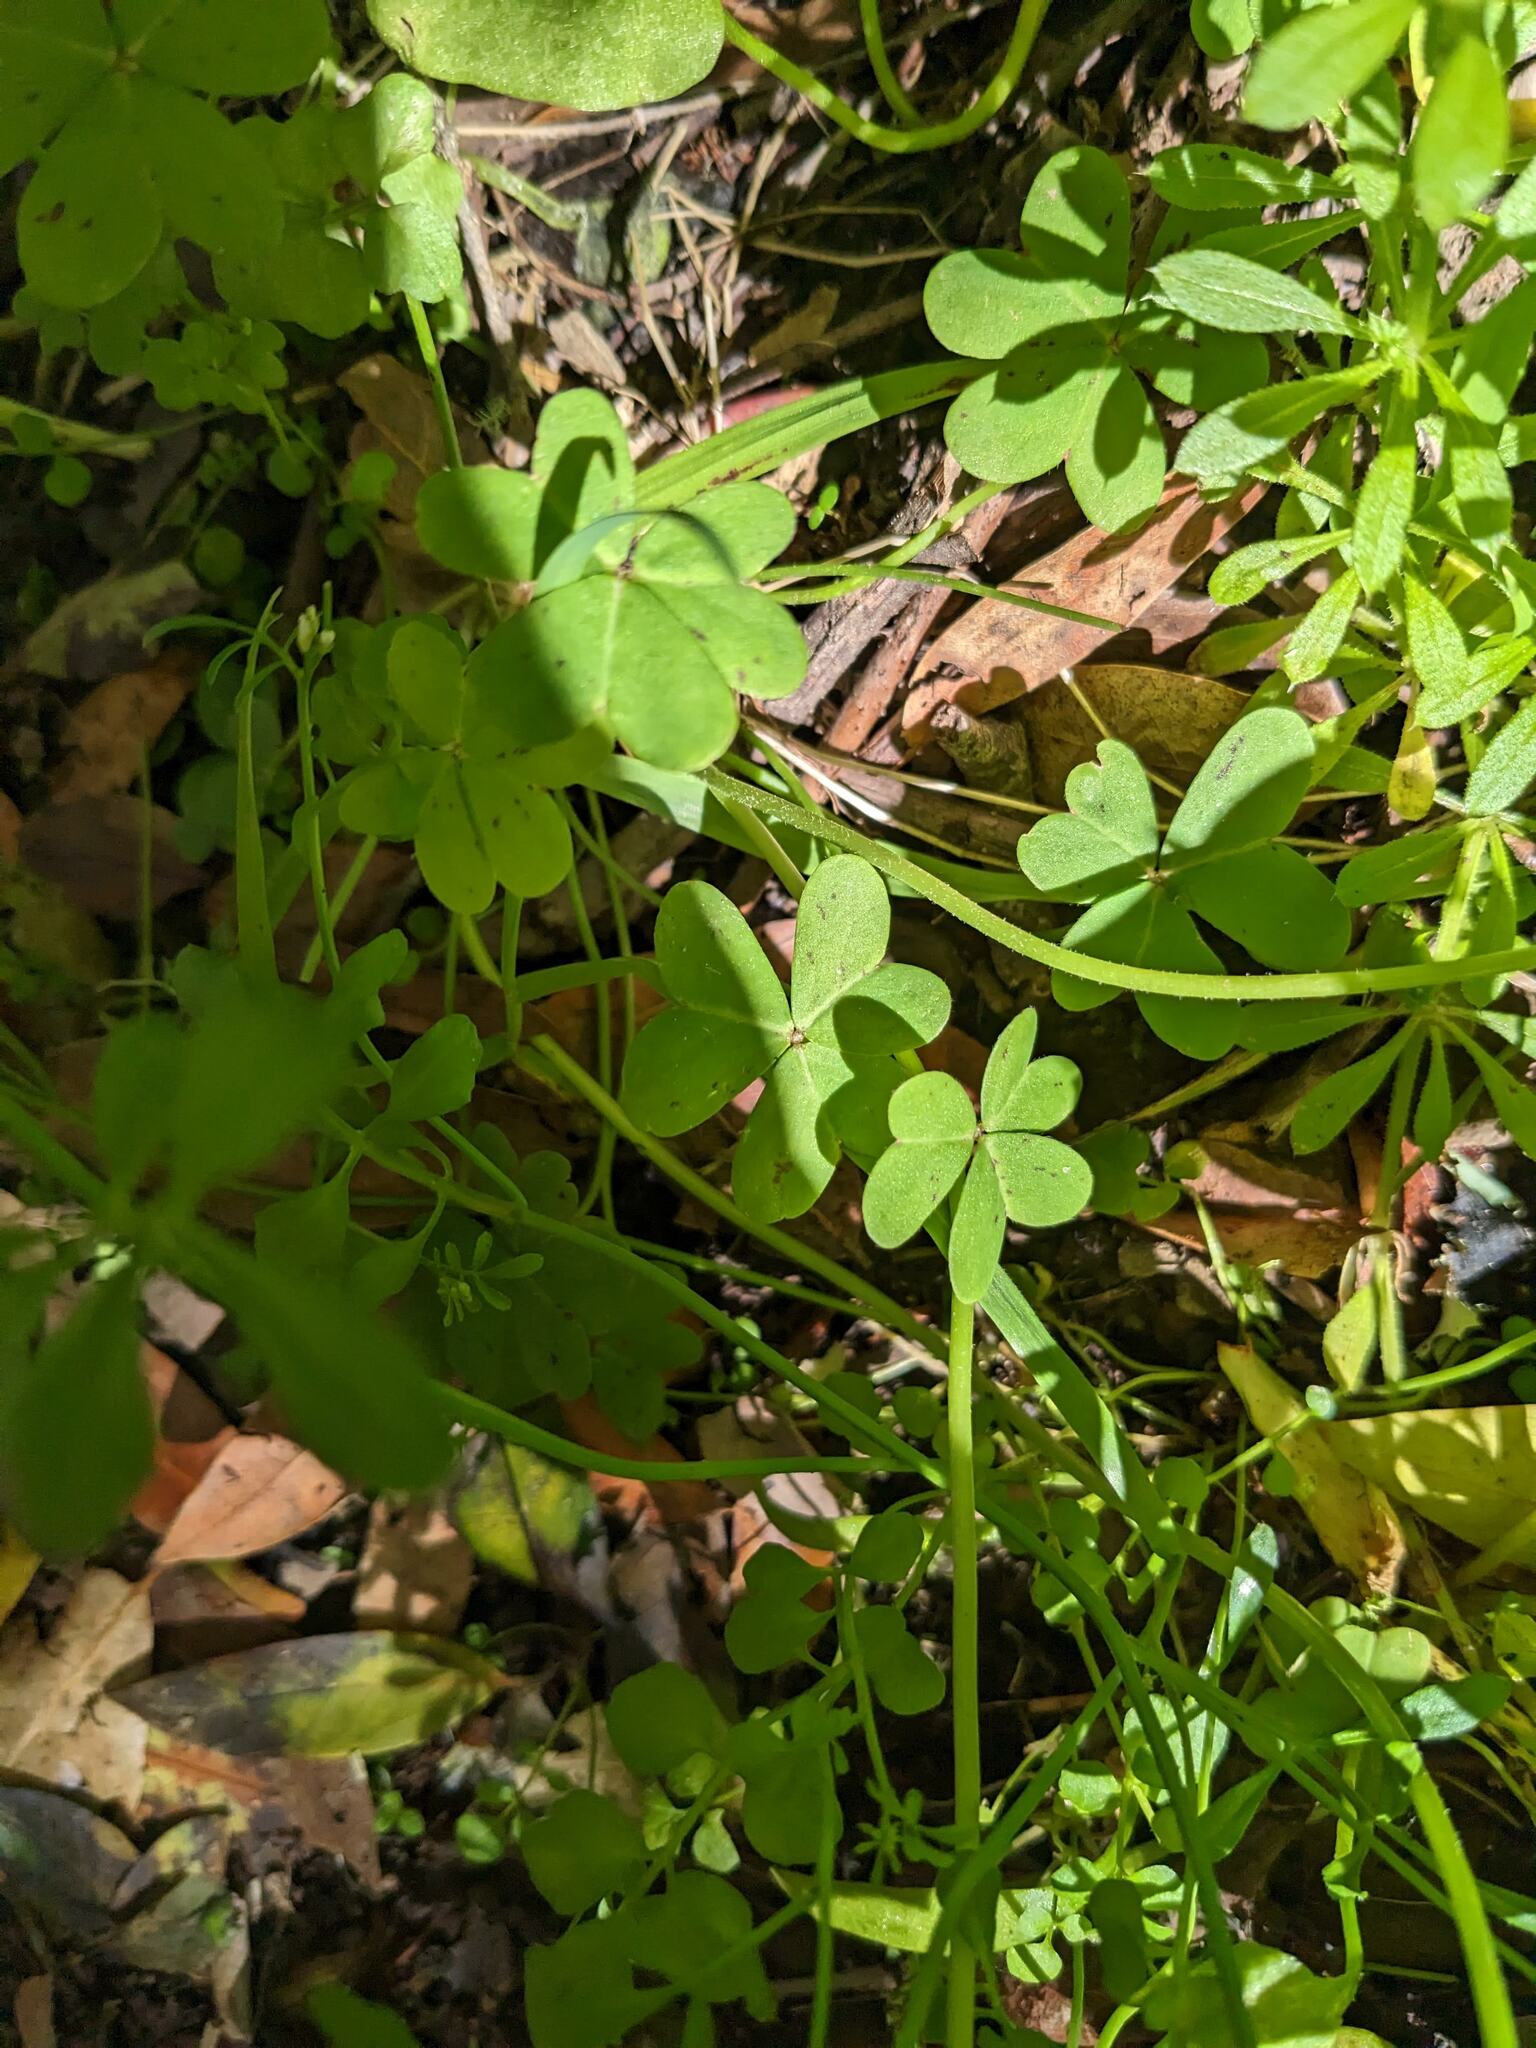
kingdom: Plantae
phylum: Tracheophyta
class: Magnoliopsida
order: Oxalidales
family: Oxalidaceae
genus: Oxalis
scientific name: Oxalis pes-caprae
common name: Bermuda-buttercup
